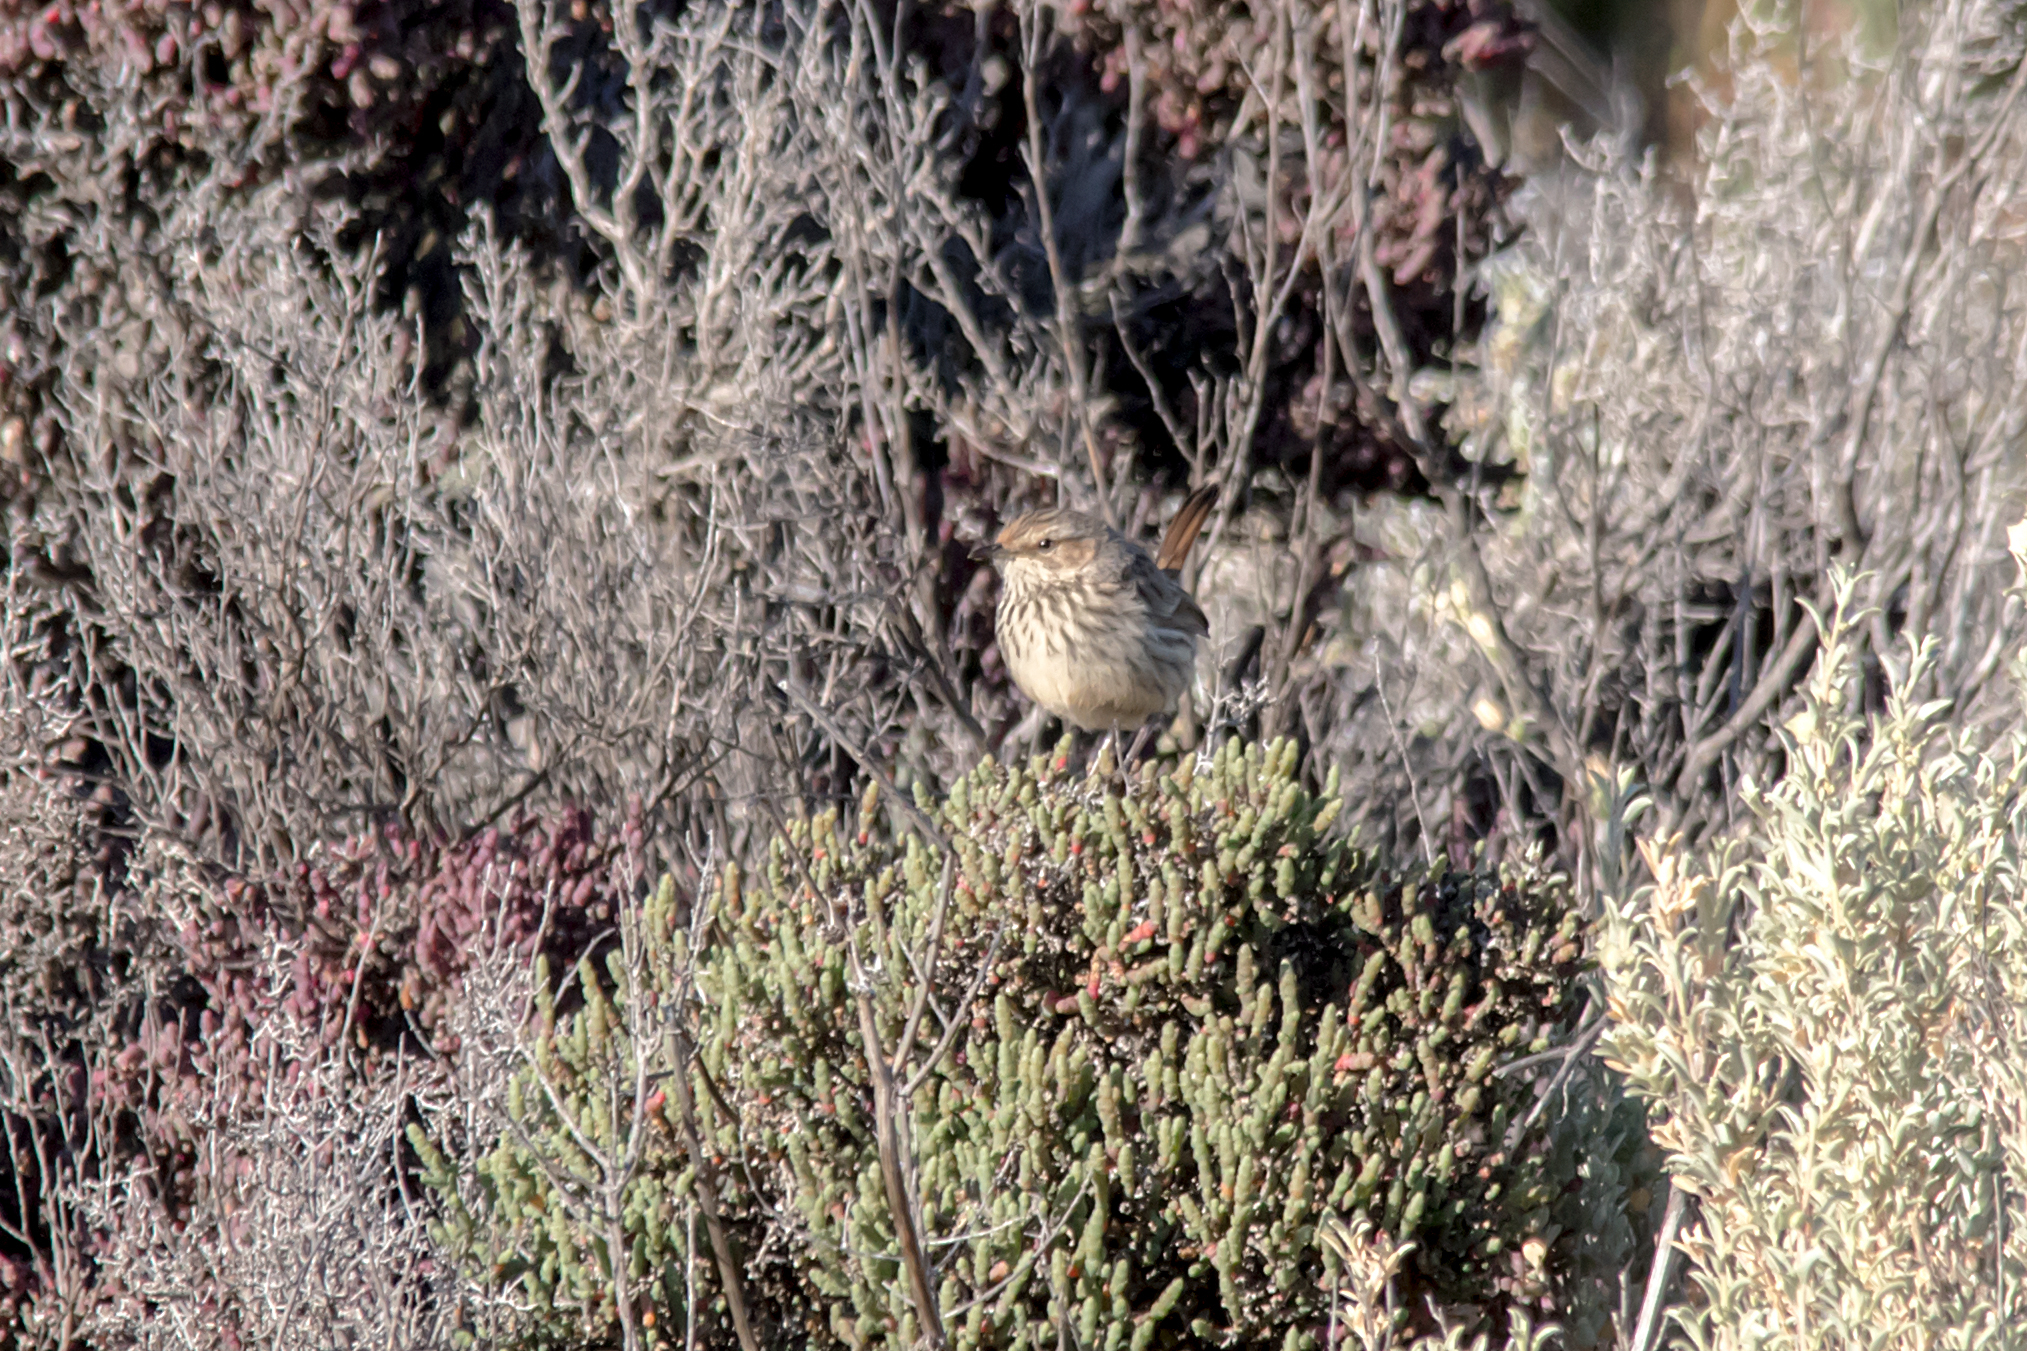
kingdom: Animalia
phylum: Chordata
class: Aves
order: Passeriformes
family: Acanthizidae
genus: Calamanthus
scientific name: Calamanthus campestris
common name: Rufous fieldwren
